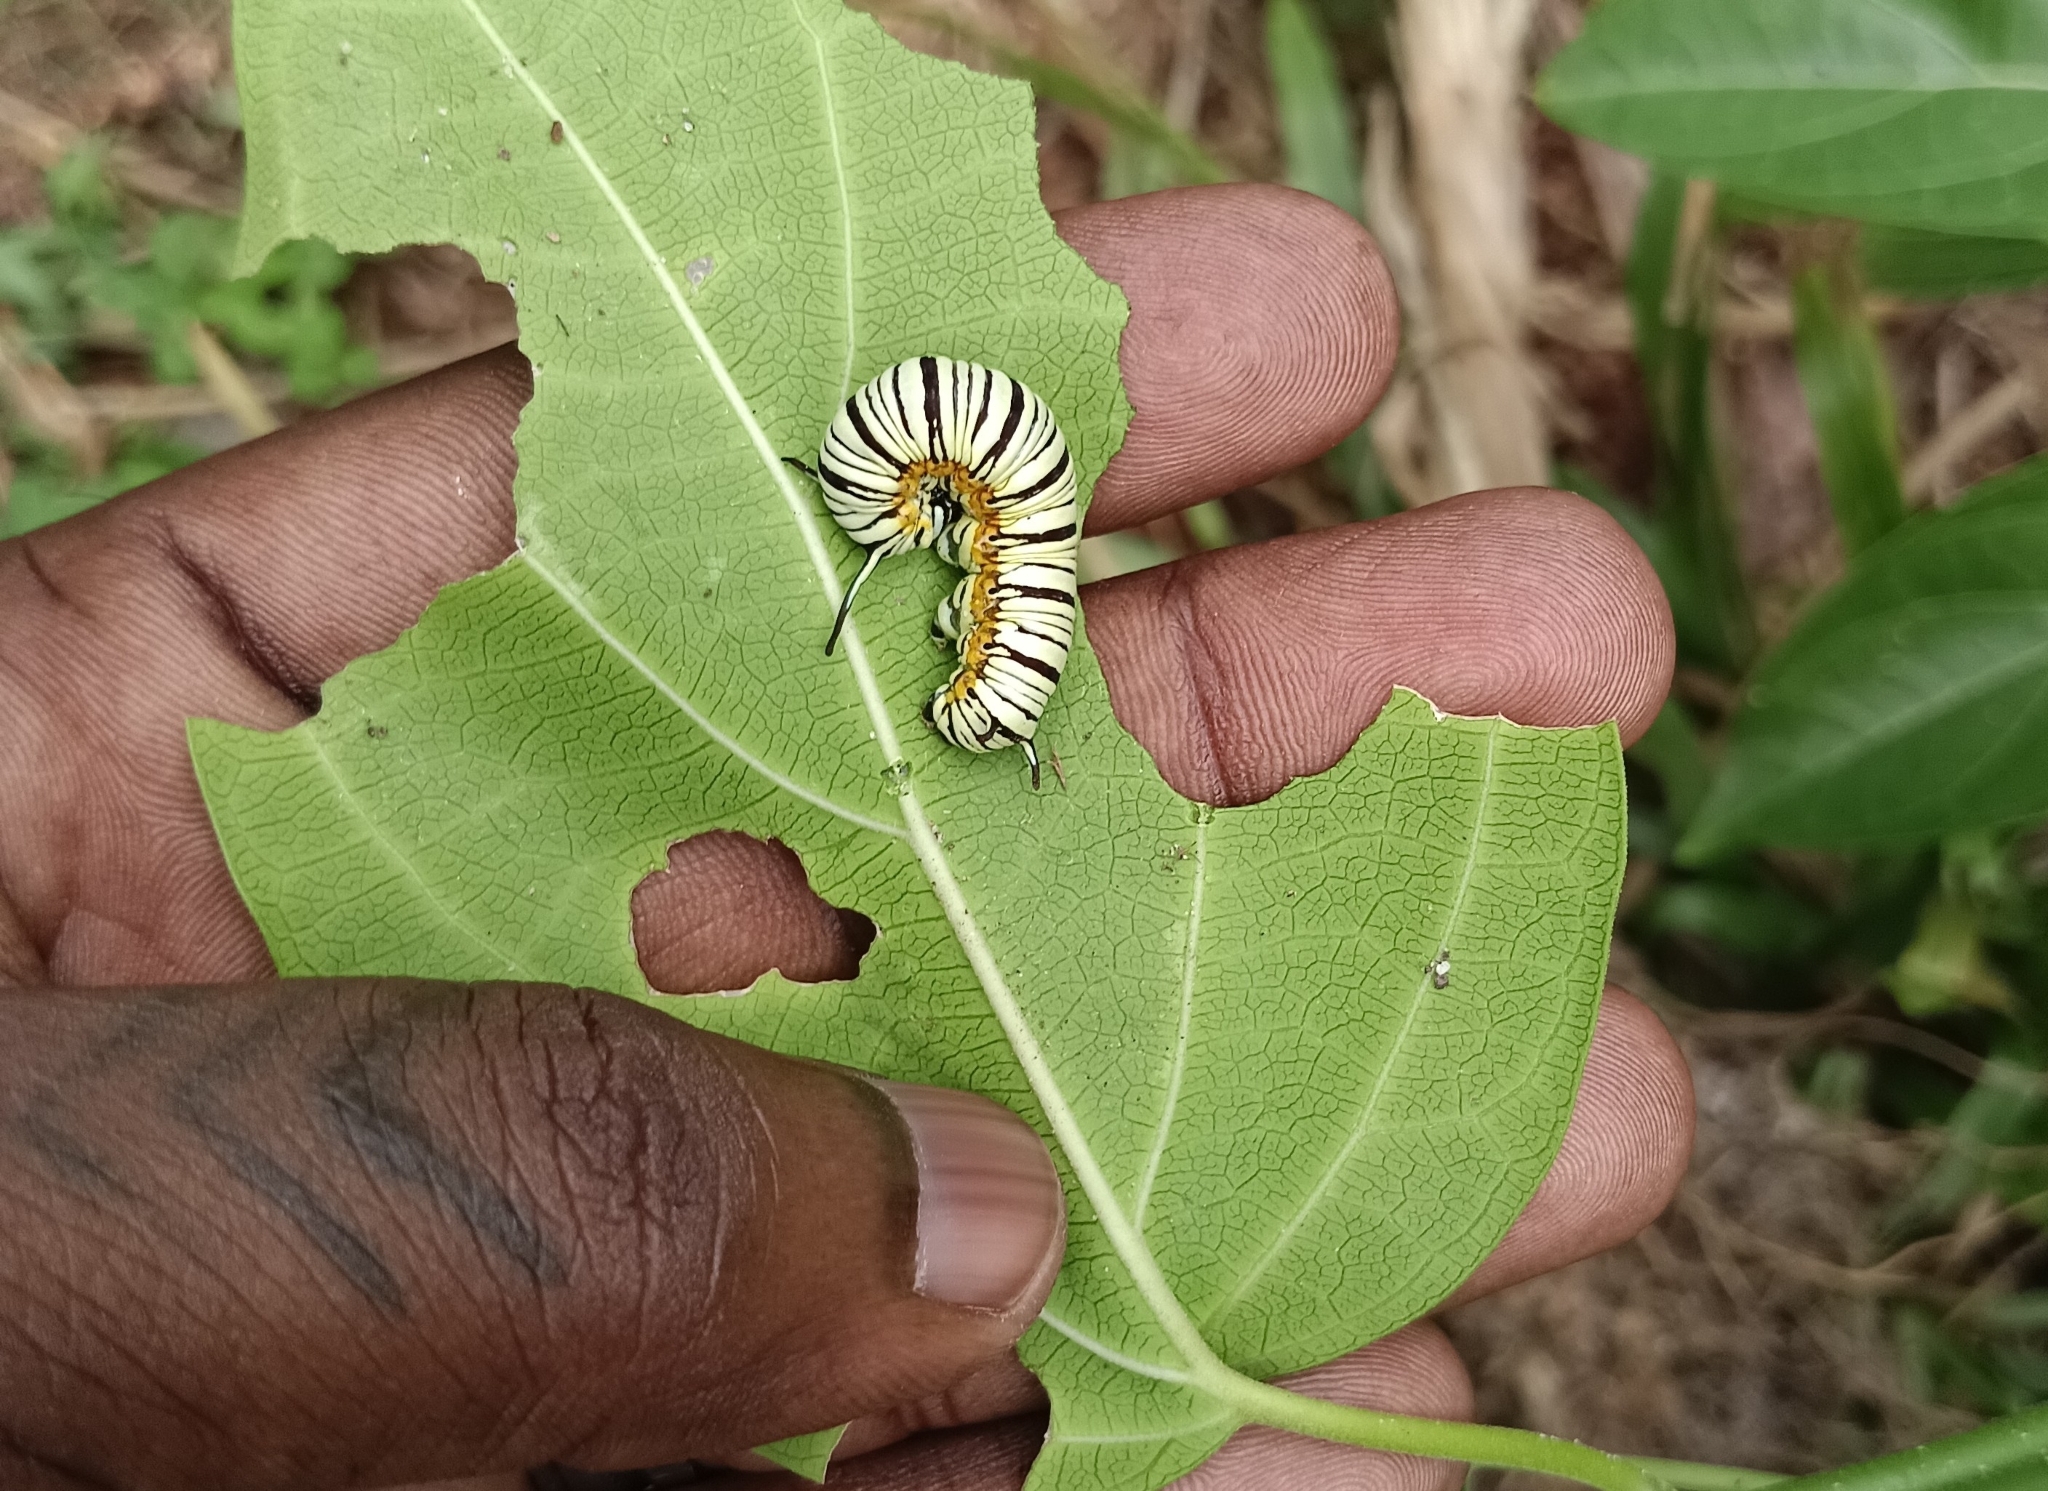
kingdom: Animalia
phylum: Arthropoda
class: Insecta
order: Lepidoptera
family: Nymphalidae
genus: Tirumala
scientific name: Tirumala limniace
